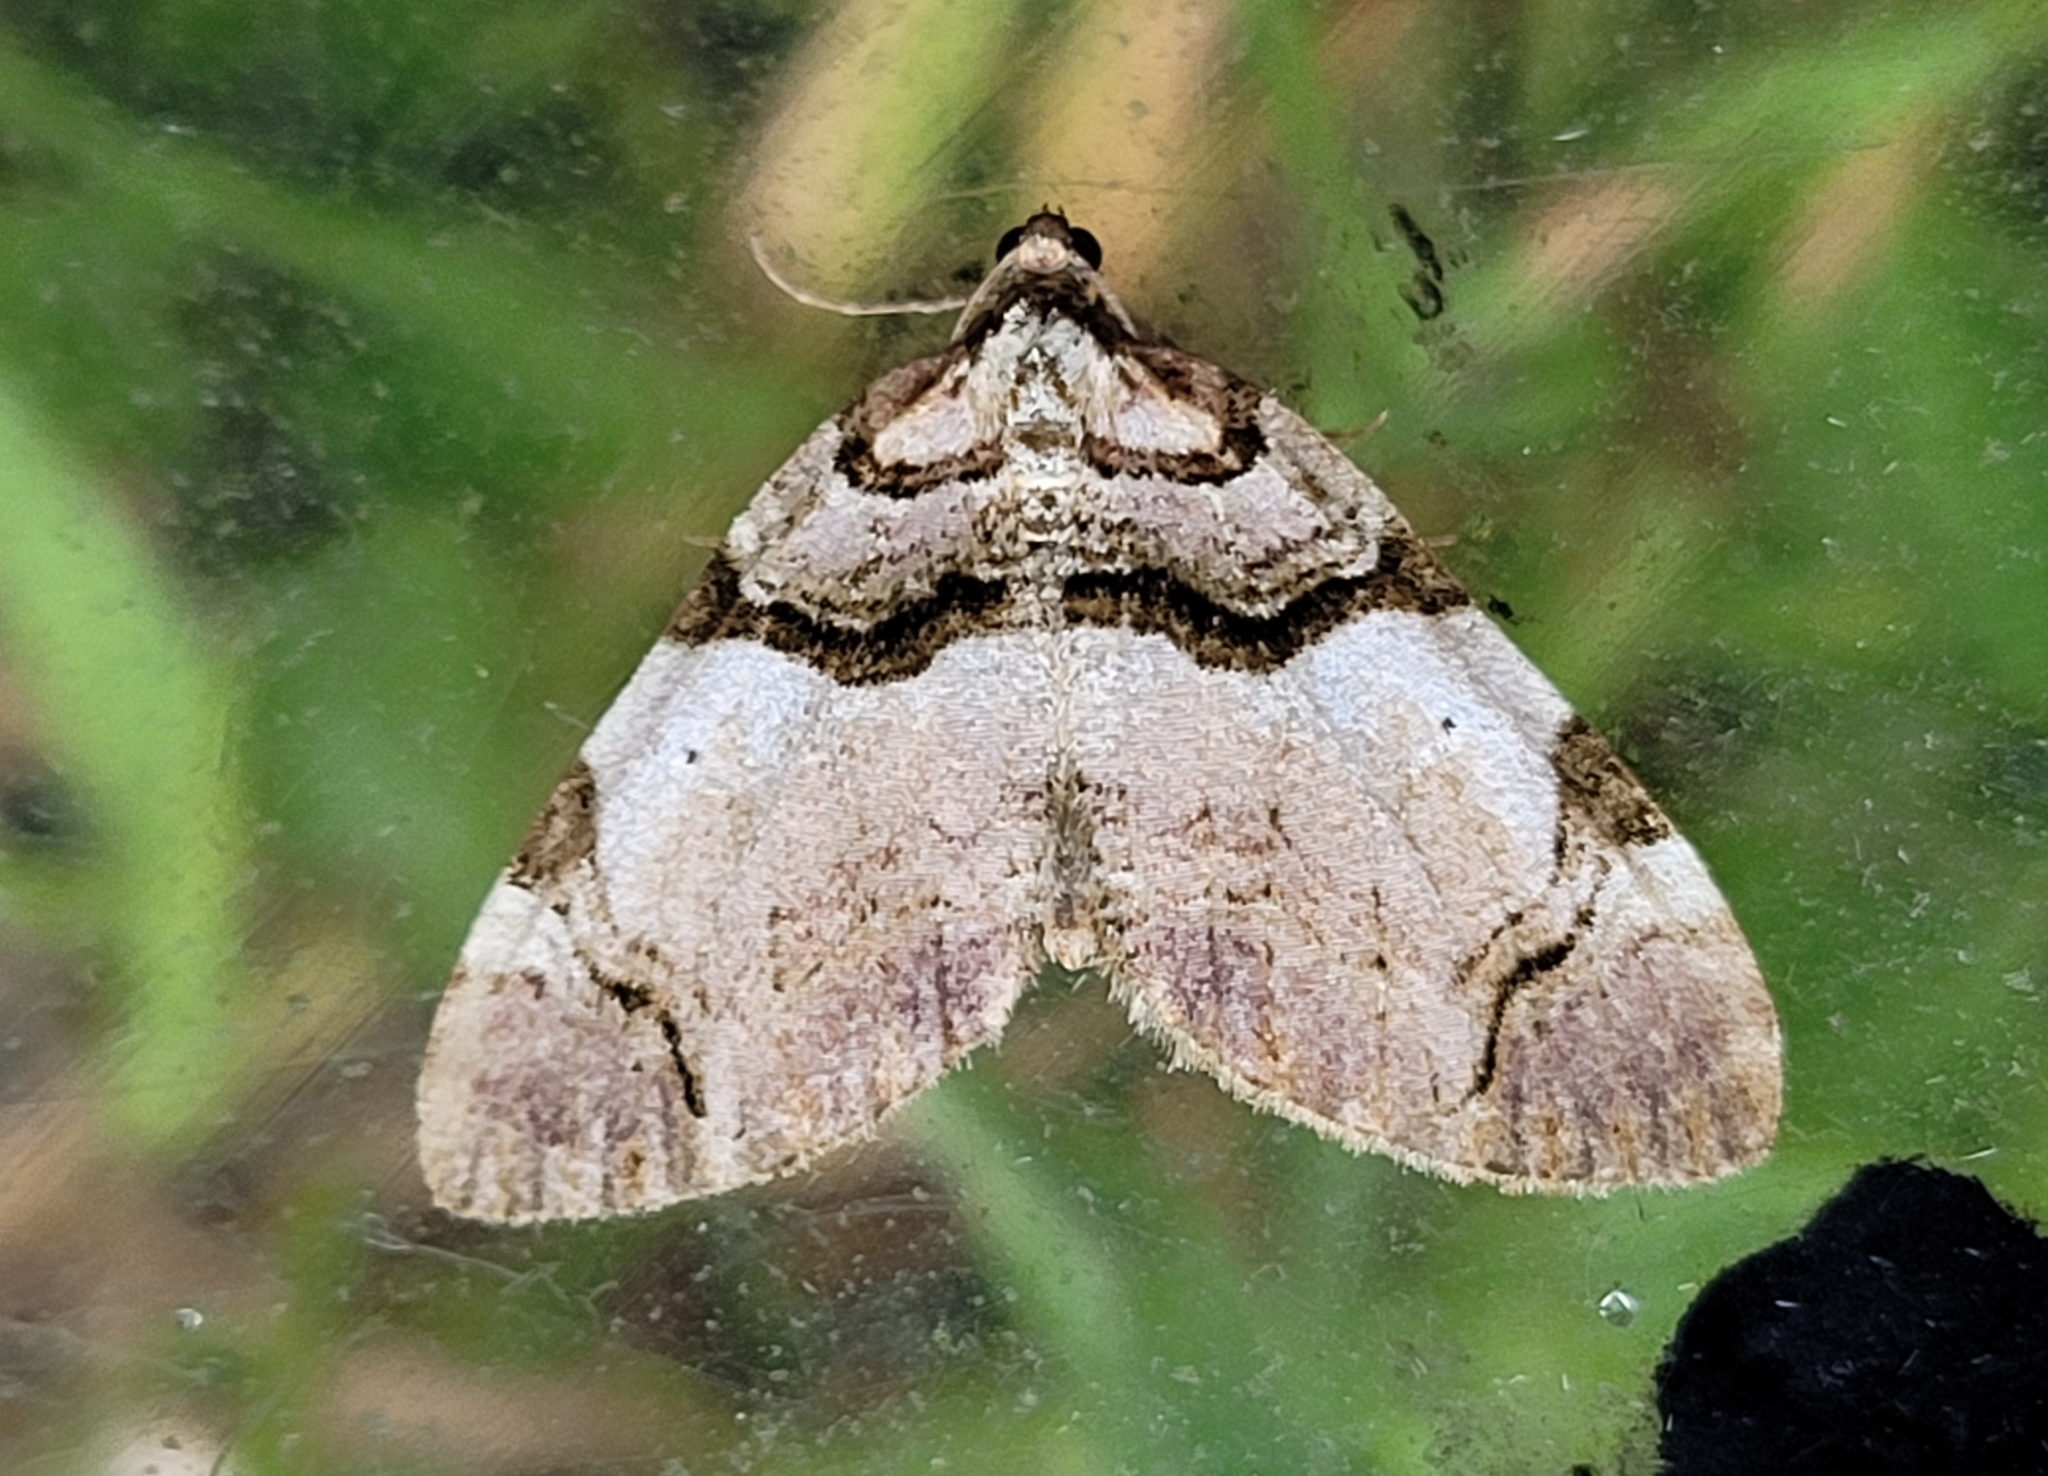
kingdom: Animalia
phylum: Arthropoda
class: Insecta
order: Lepidoptera
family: Geometridae
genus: Anticlea
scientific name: Anticlea derivata
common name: Streamer
